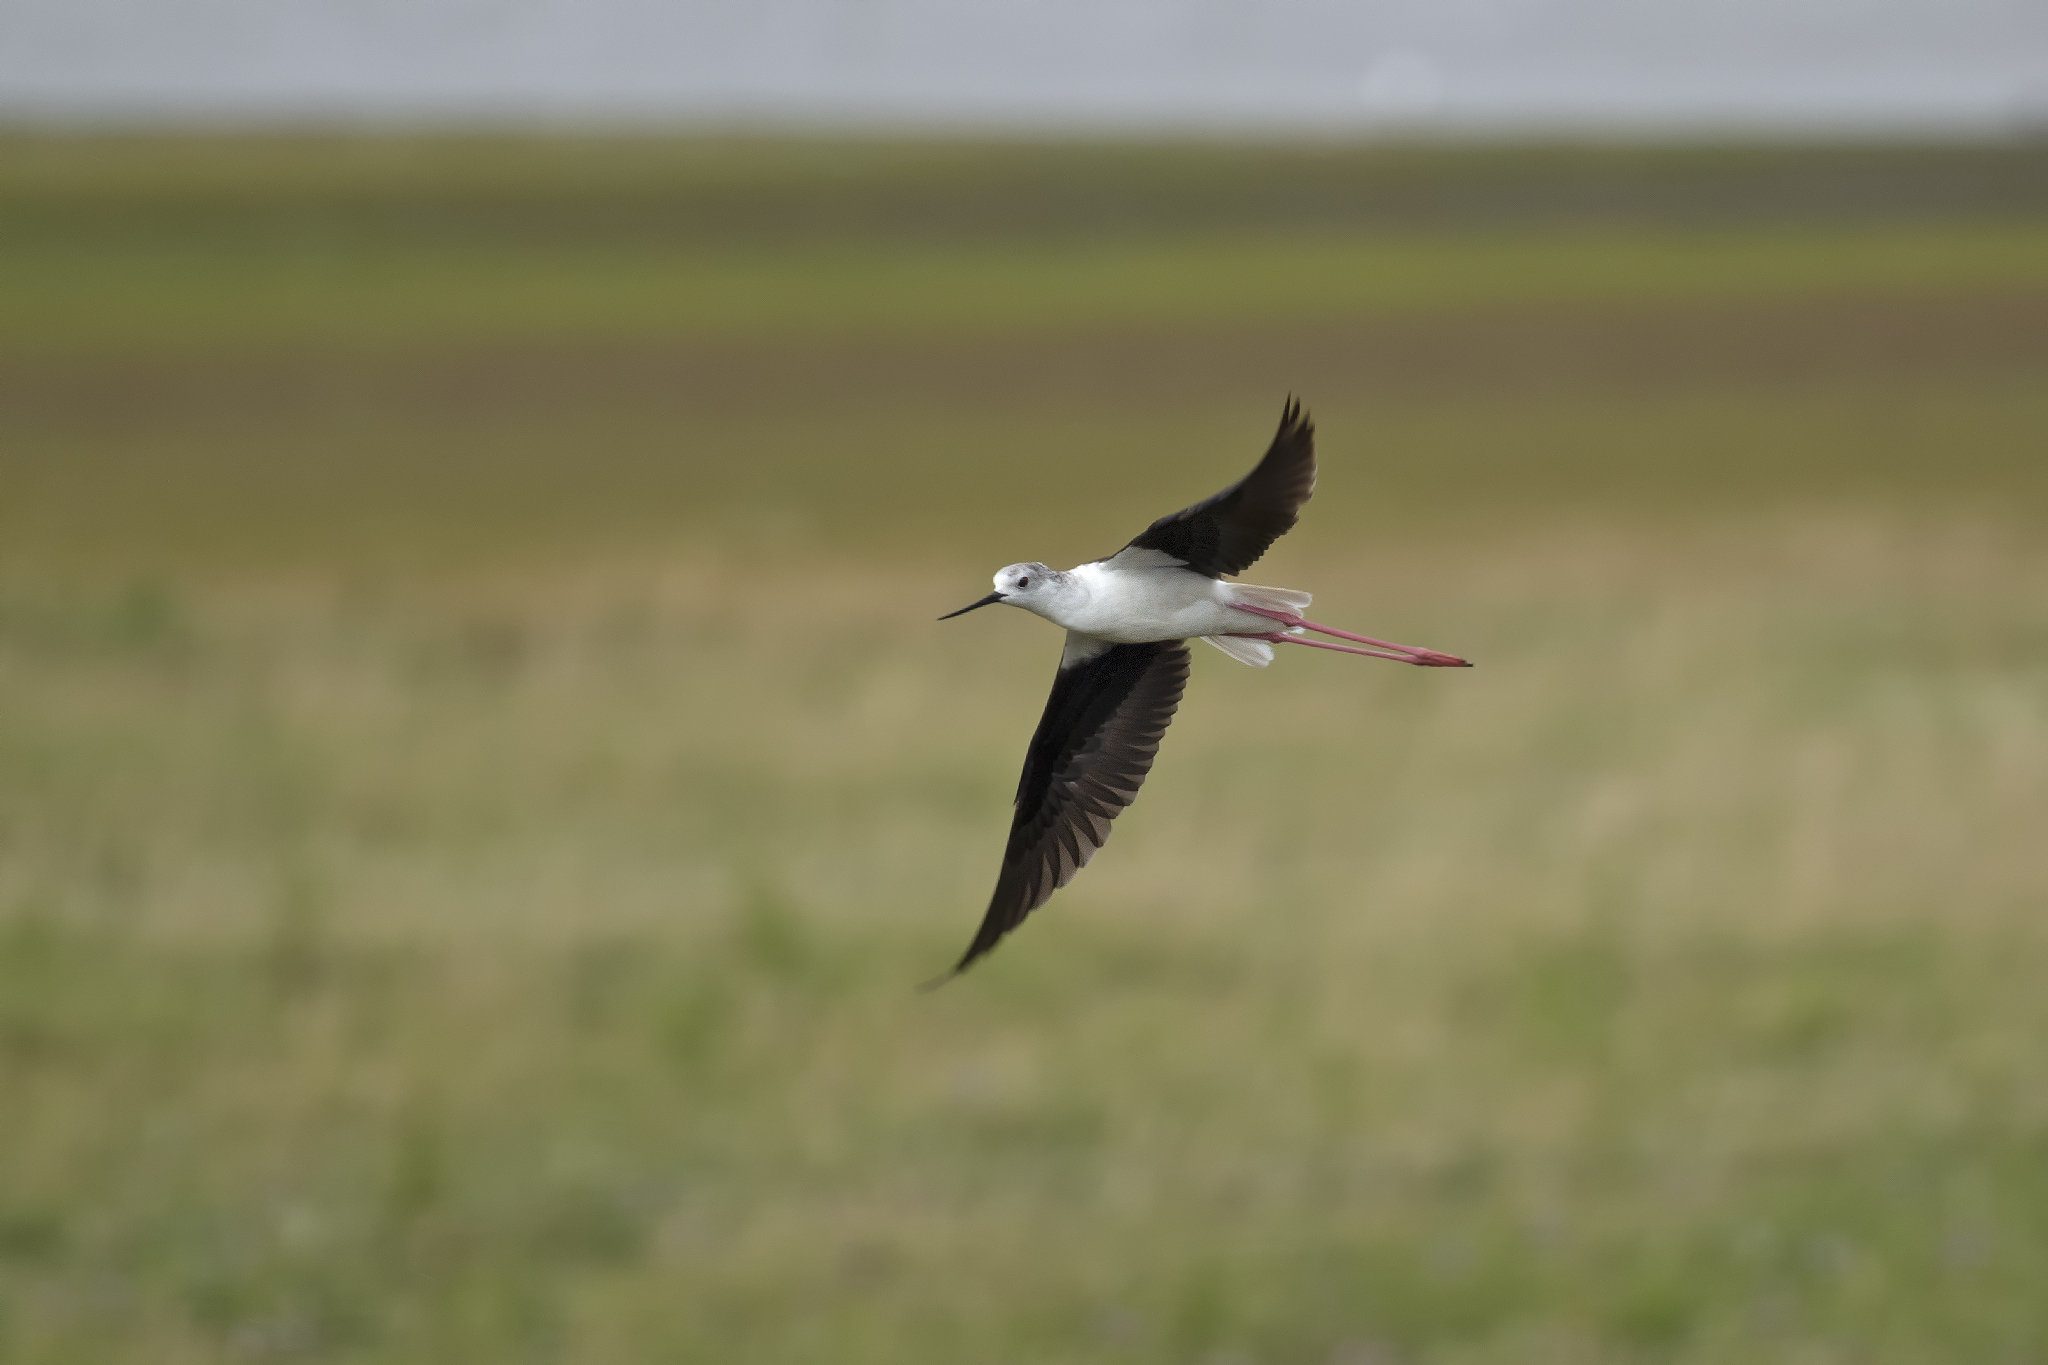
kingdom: Animalia
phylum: Chordata
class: Aves
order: Charadriiformes
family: Recurvirostridae
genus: Himantopus
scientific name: Himantopus himantopus
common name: Black-winged stilt
